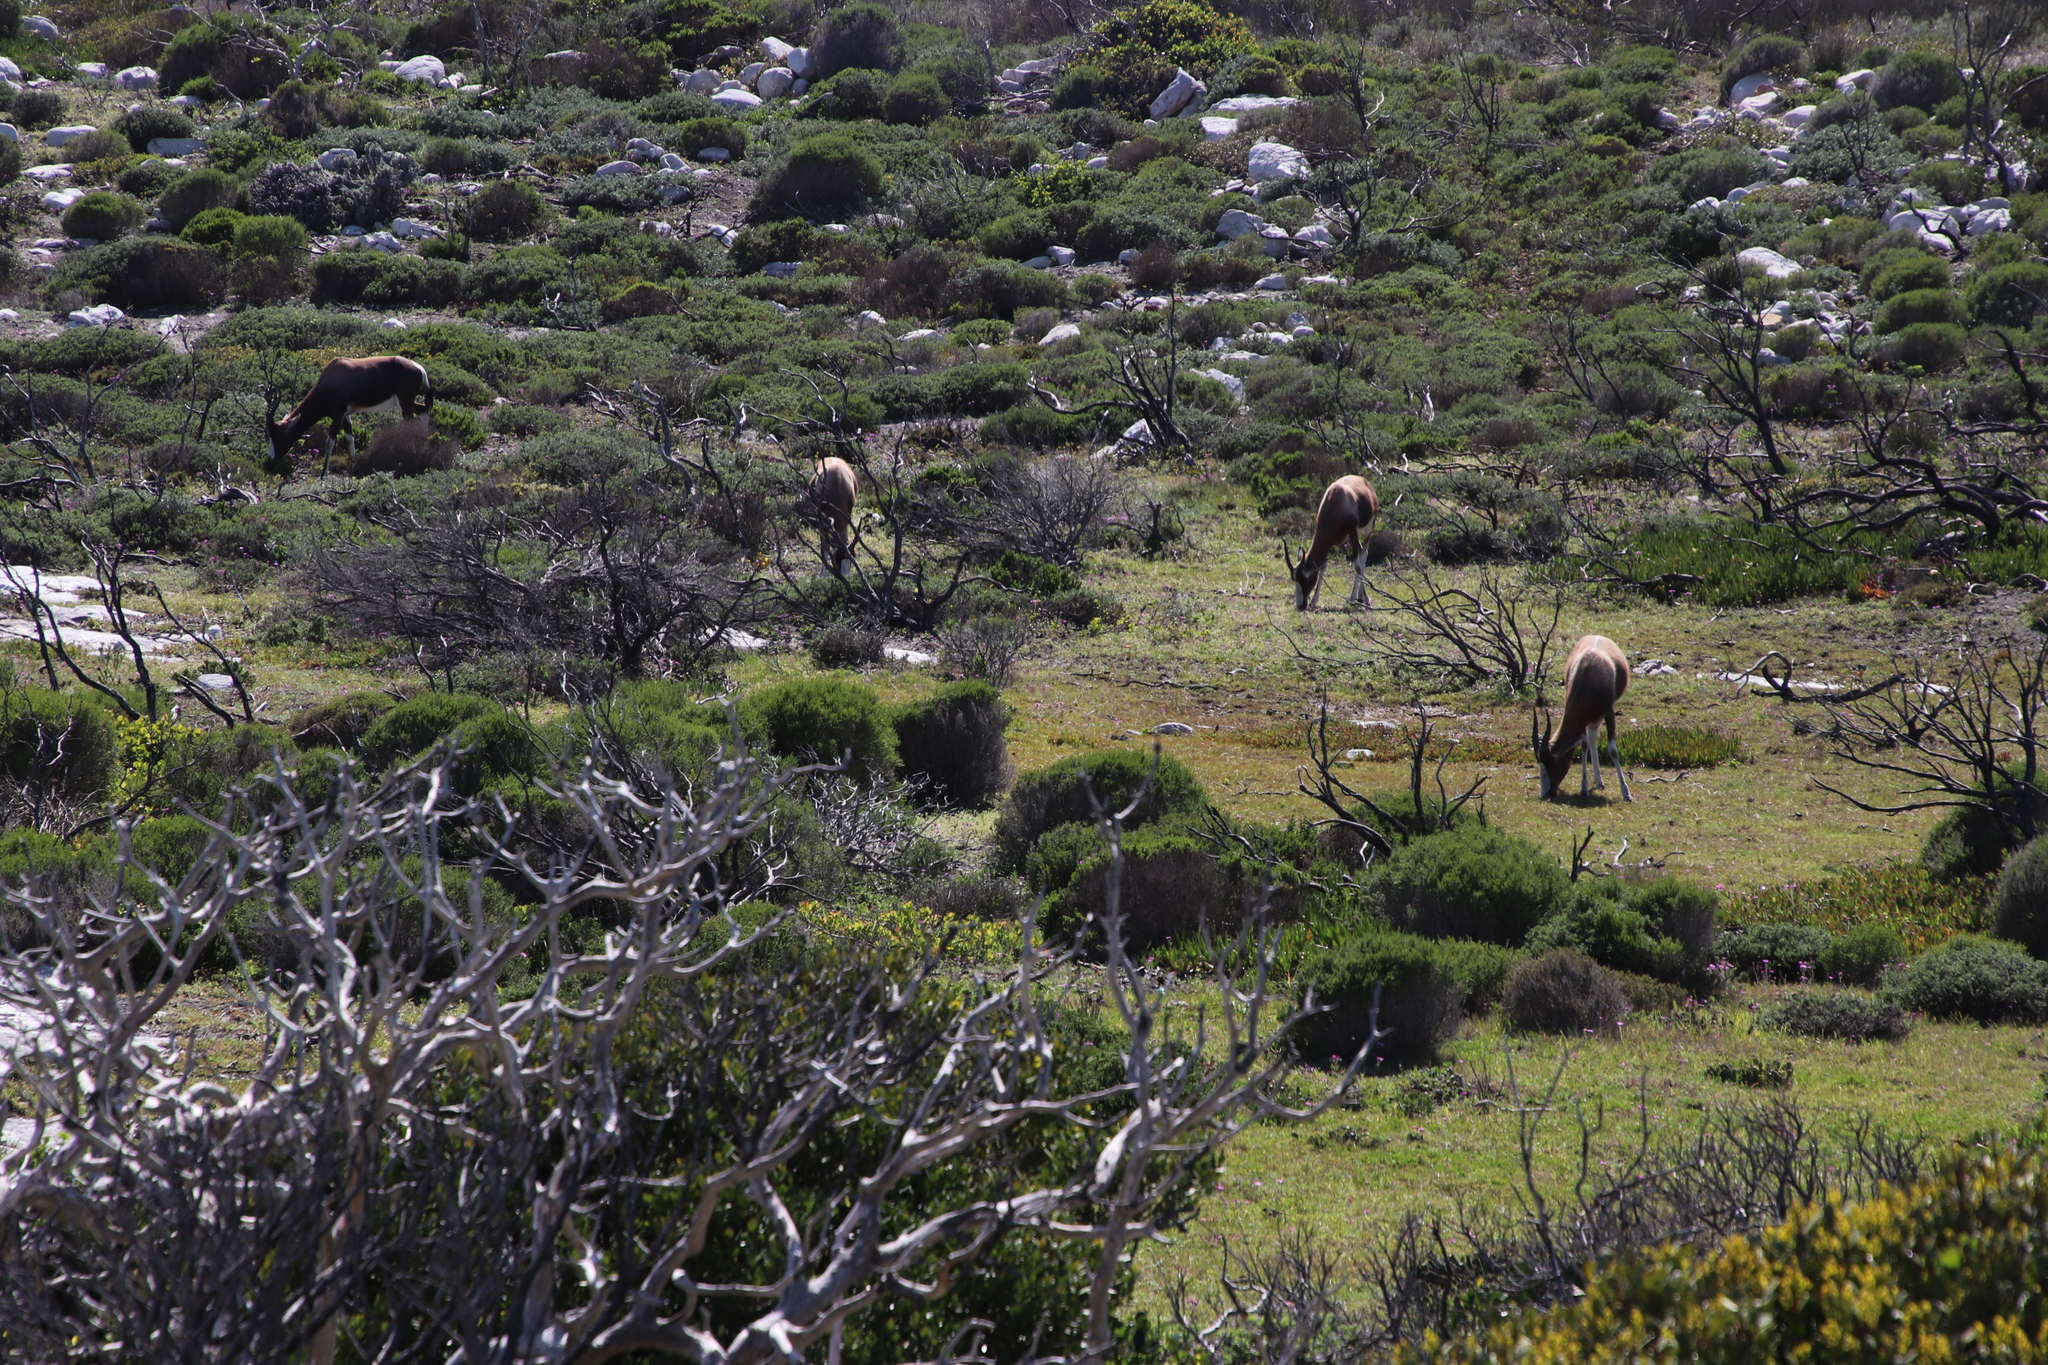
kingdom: Animalia
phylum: Chordata
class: Mammalia
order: Artiodactyla
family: Bovidae
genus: Damaliscus
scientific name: Damaliscus pygargus
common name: Bontebok
